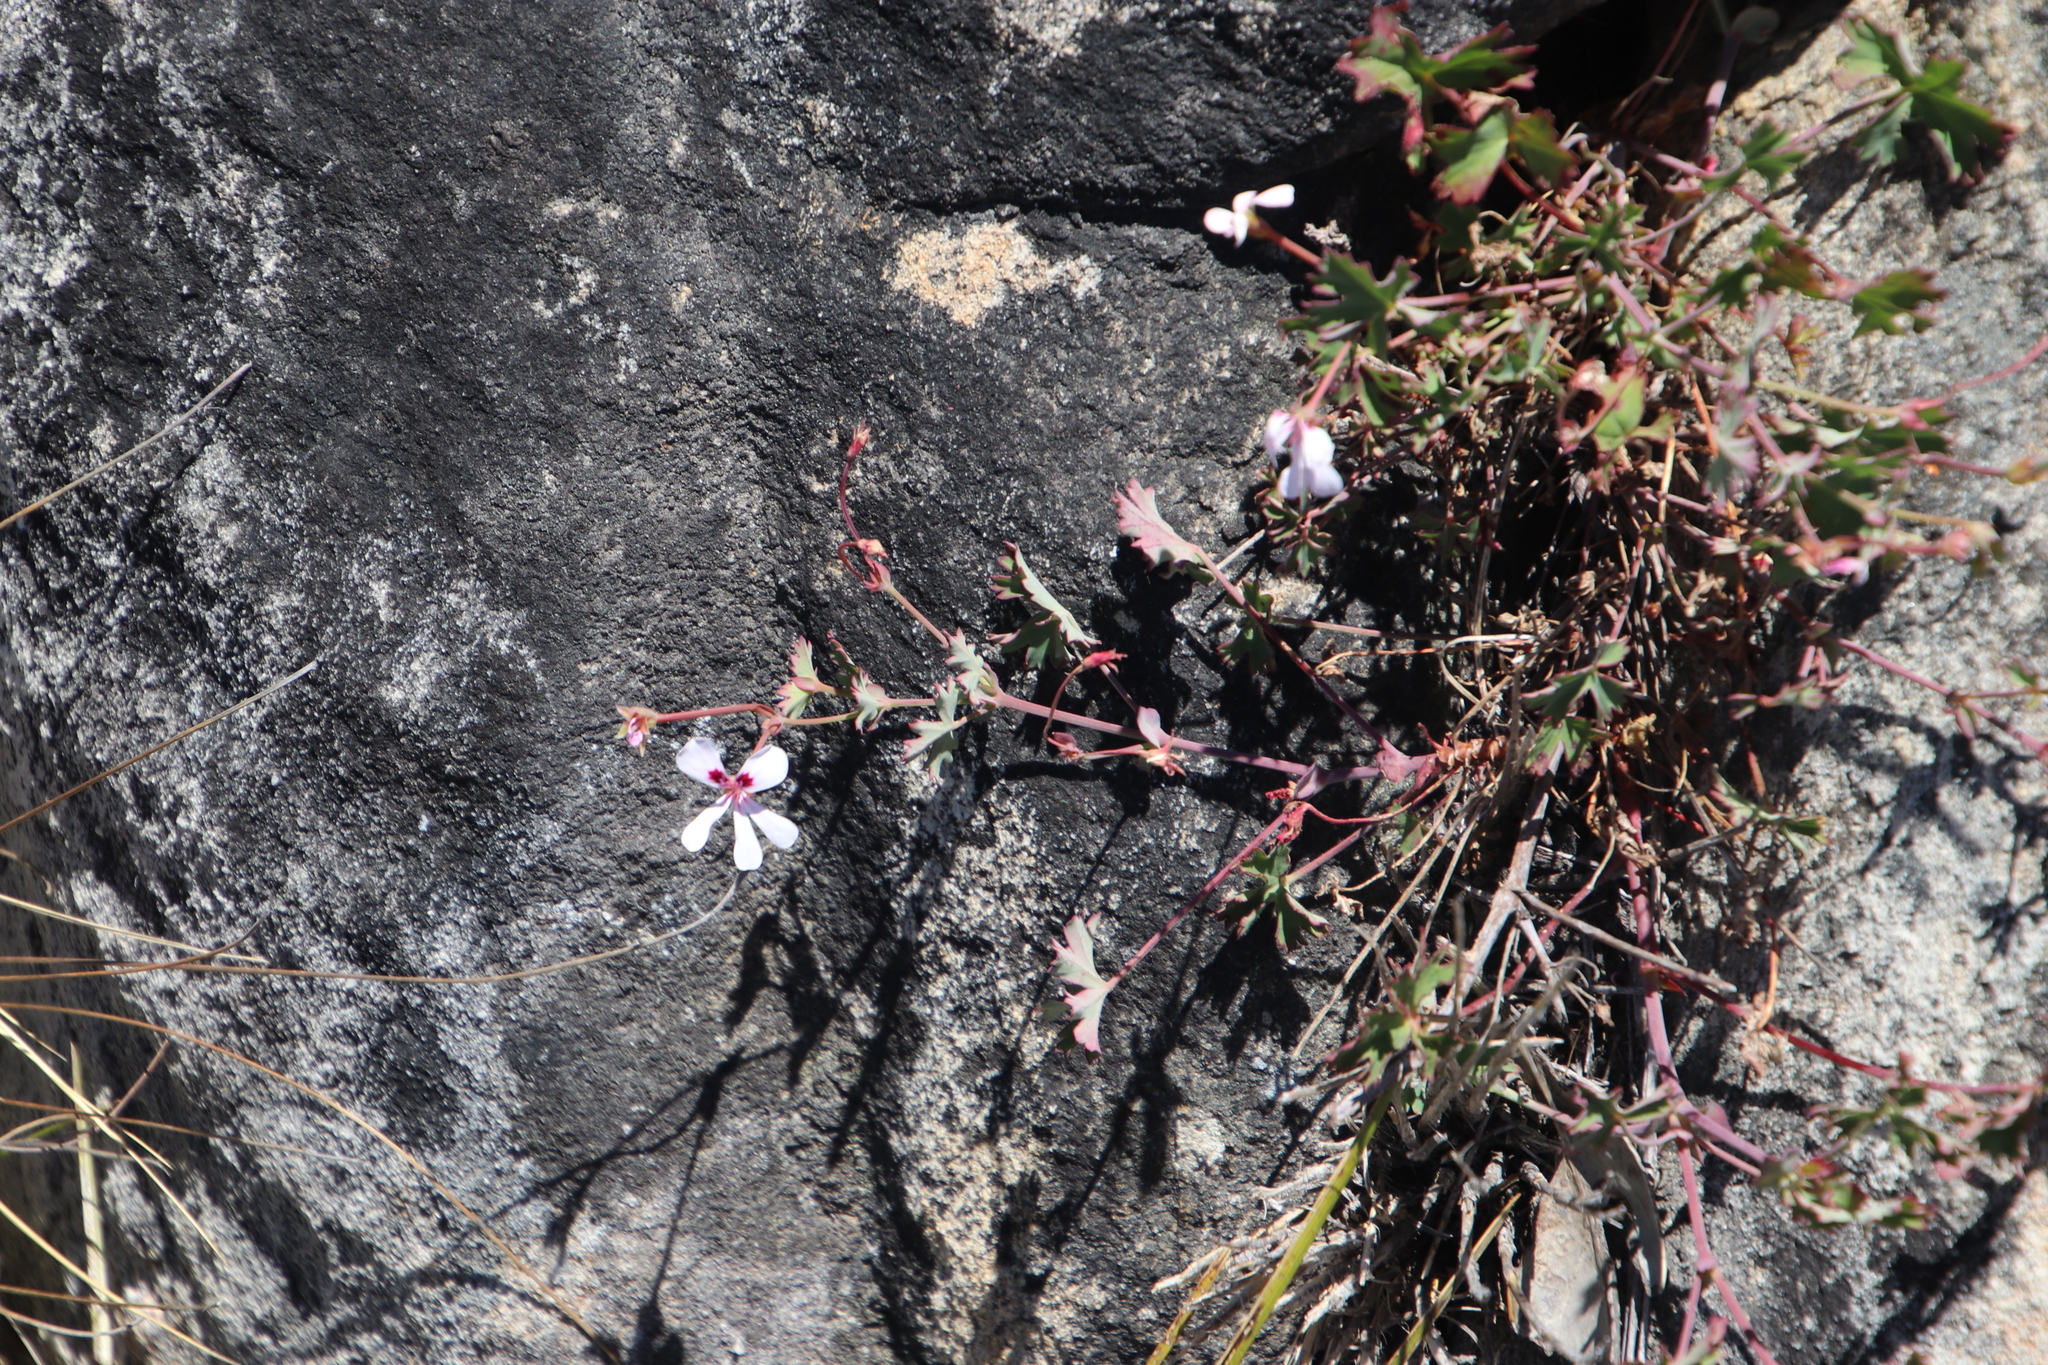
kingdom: Plantae
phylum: Tracheophyta
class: Magnoliopsida
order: Geraniales
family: Geraniaceae
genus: Pelargonium
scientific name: Pelargonium patulum
